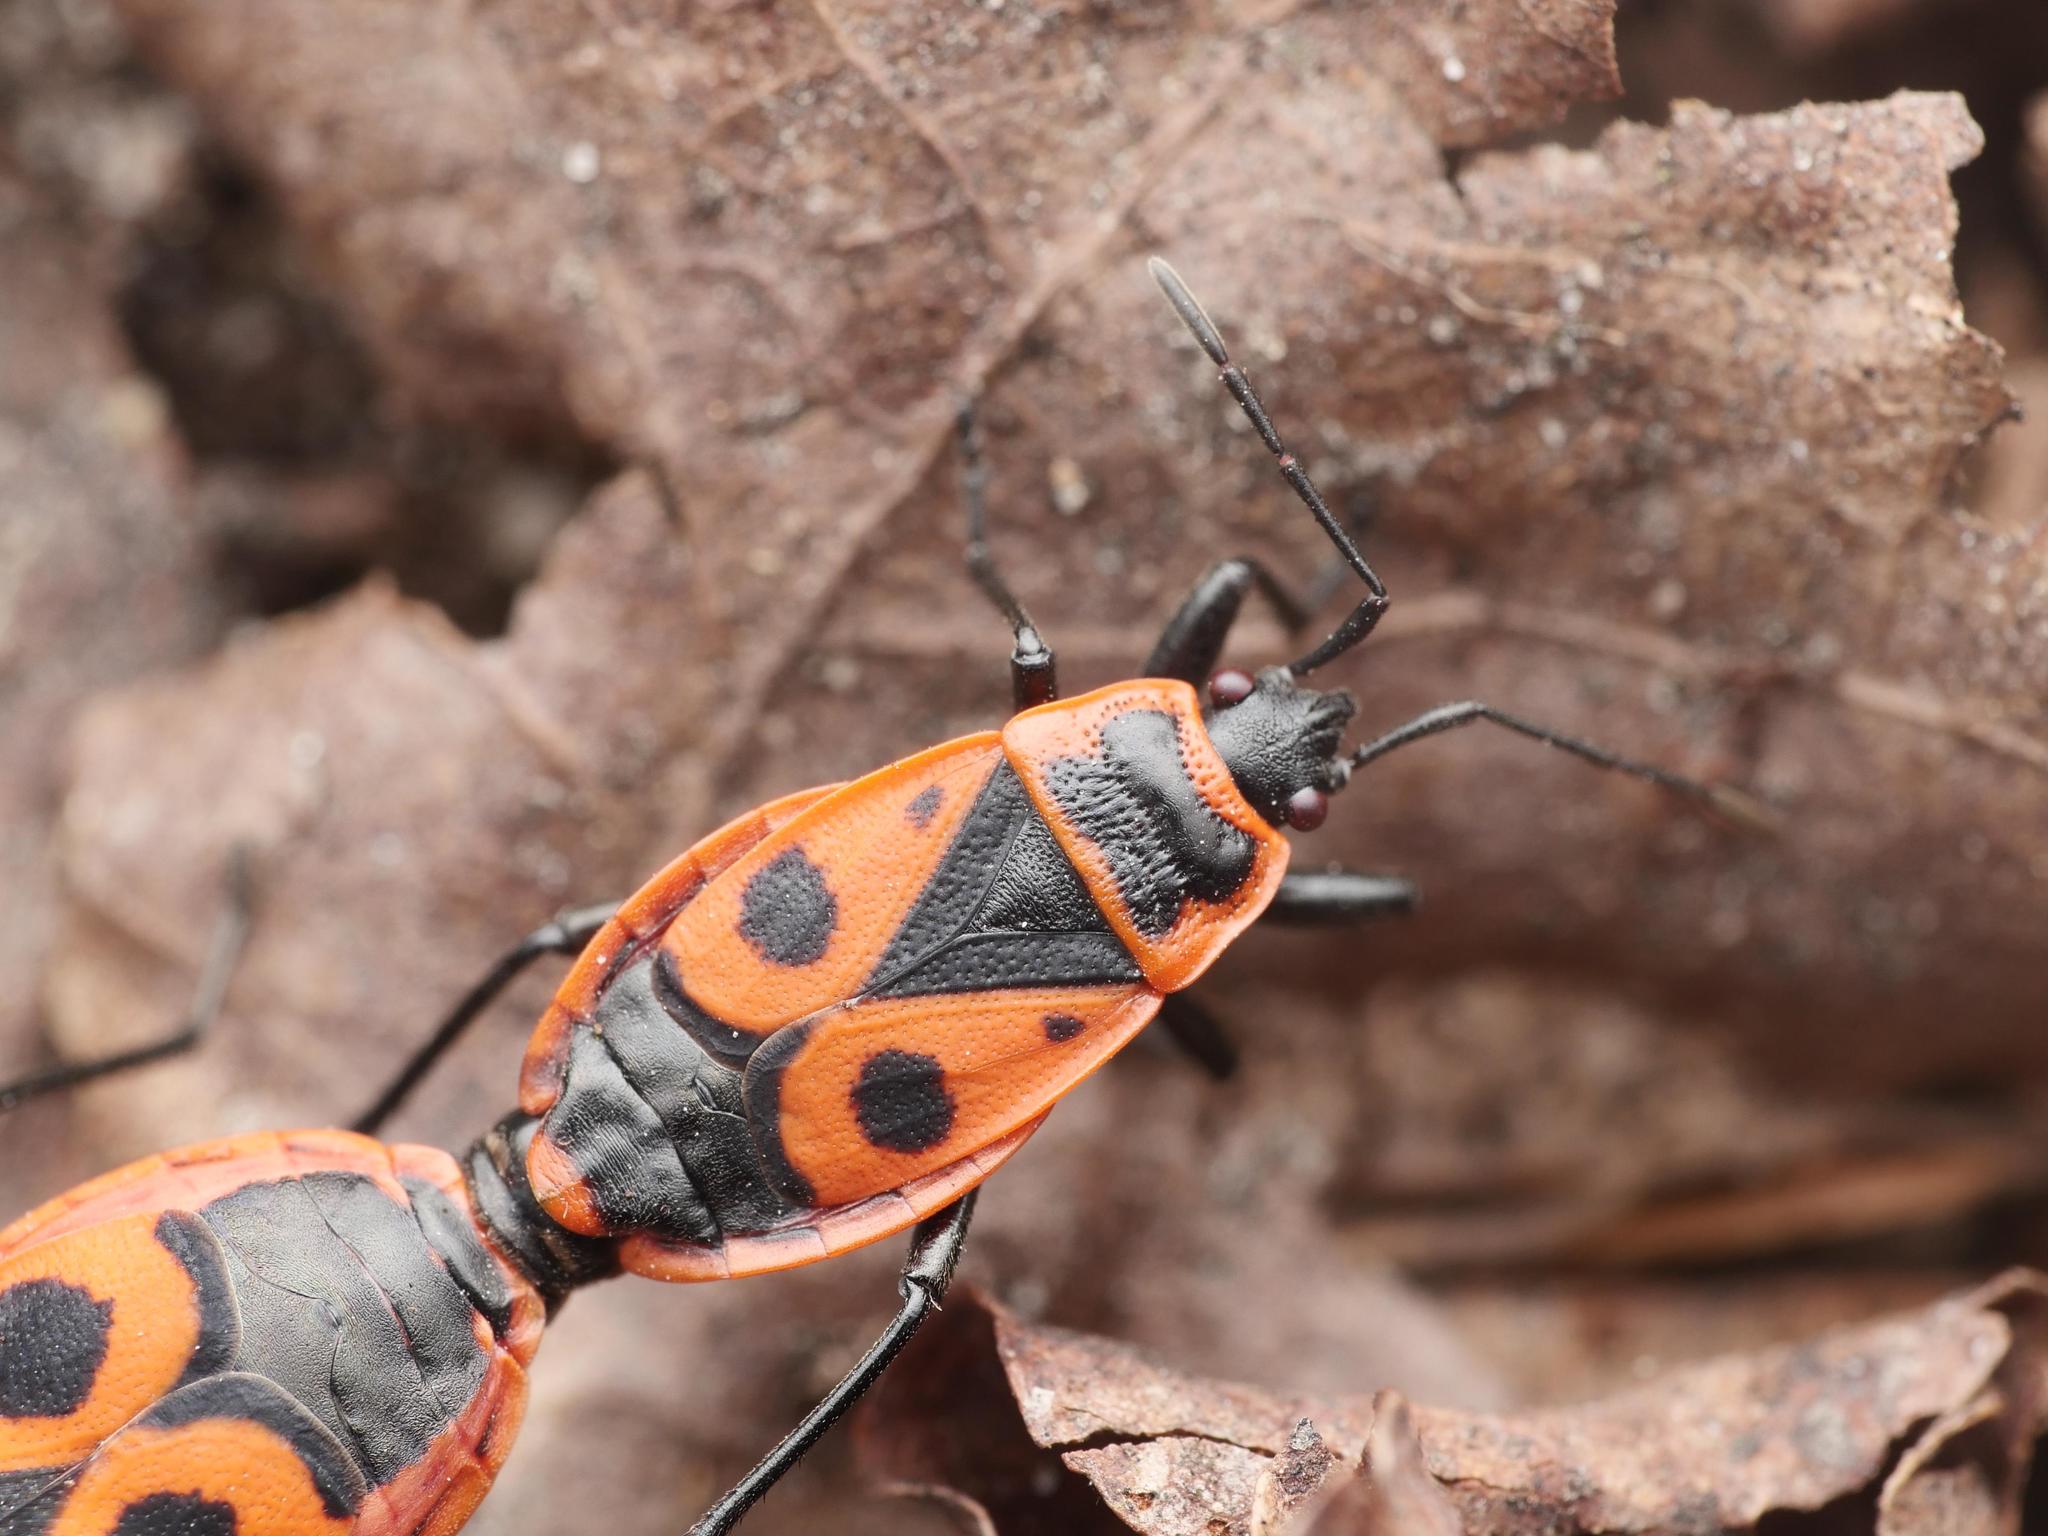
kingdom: Animalia
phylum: Arthropoda
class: Insecta
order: Hemiptera
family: Pyrrhocoridae
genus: Pyrrhocoris
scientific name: Pyrrhocoris apterus
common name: Firebug
